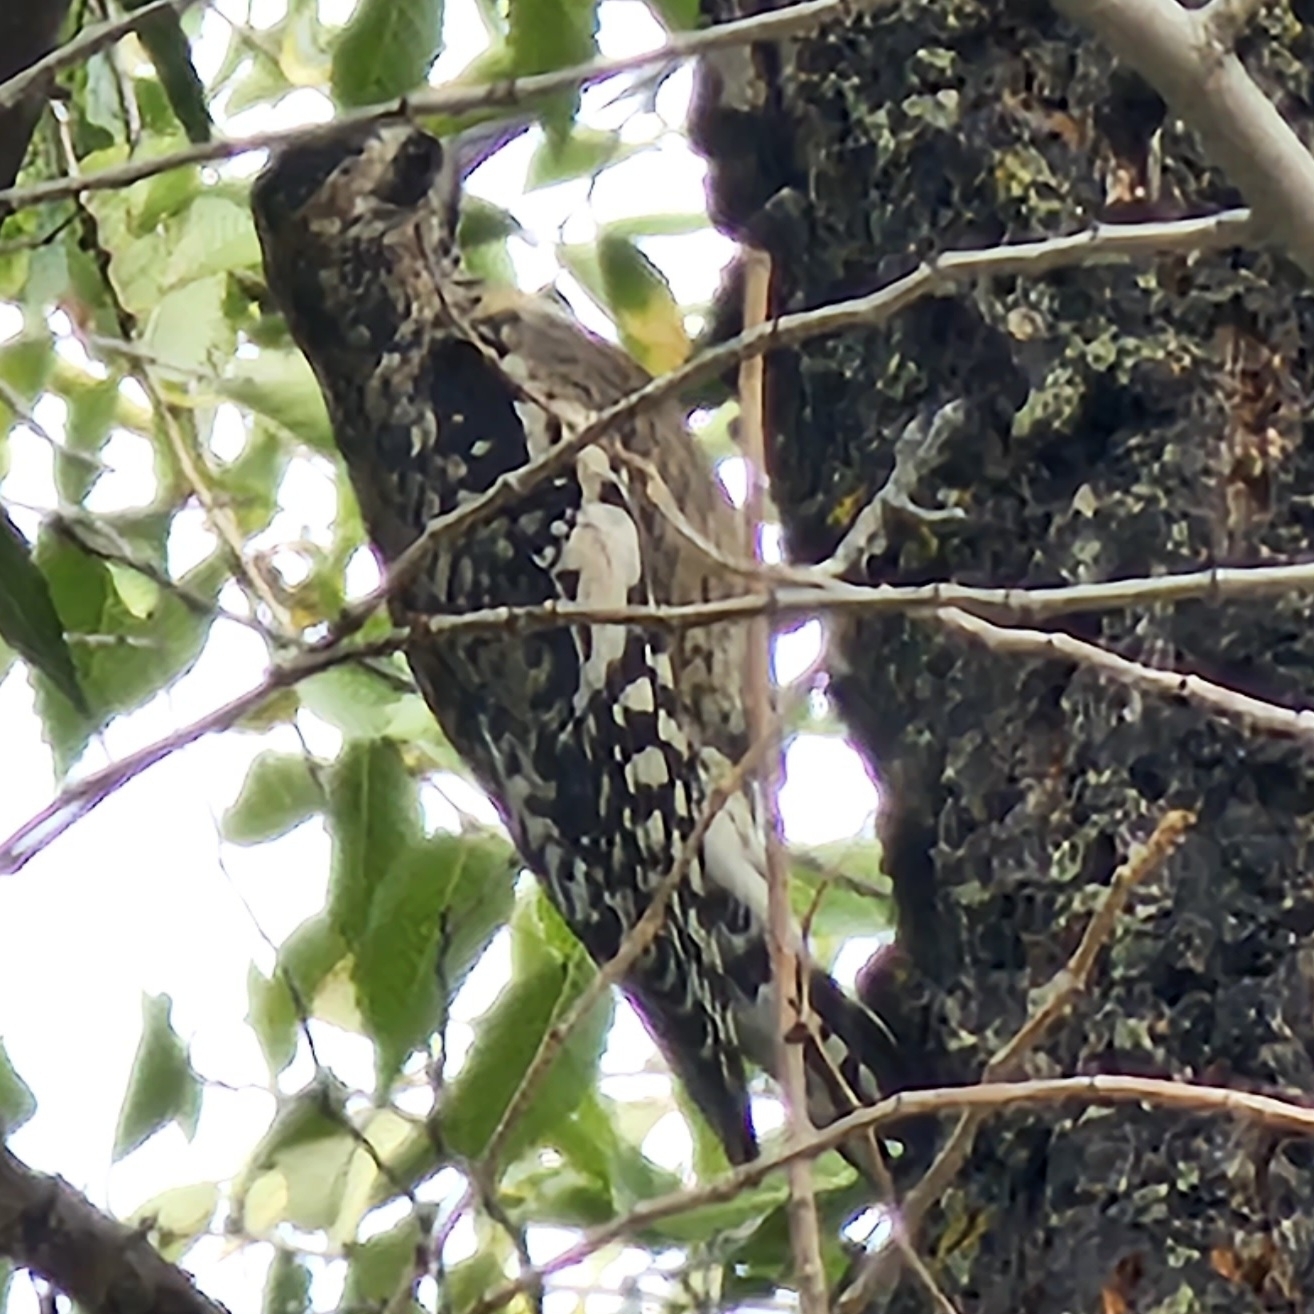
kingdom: Animalia
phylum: Chordata
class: Aves
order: Piciformes
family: Picidae
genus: Sphyrapicus
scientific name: Sphyrapicus varius
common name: Yellow-bellied sapsucker
